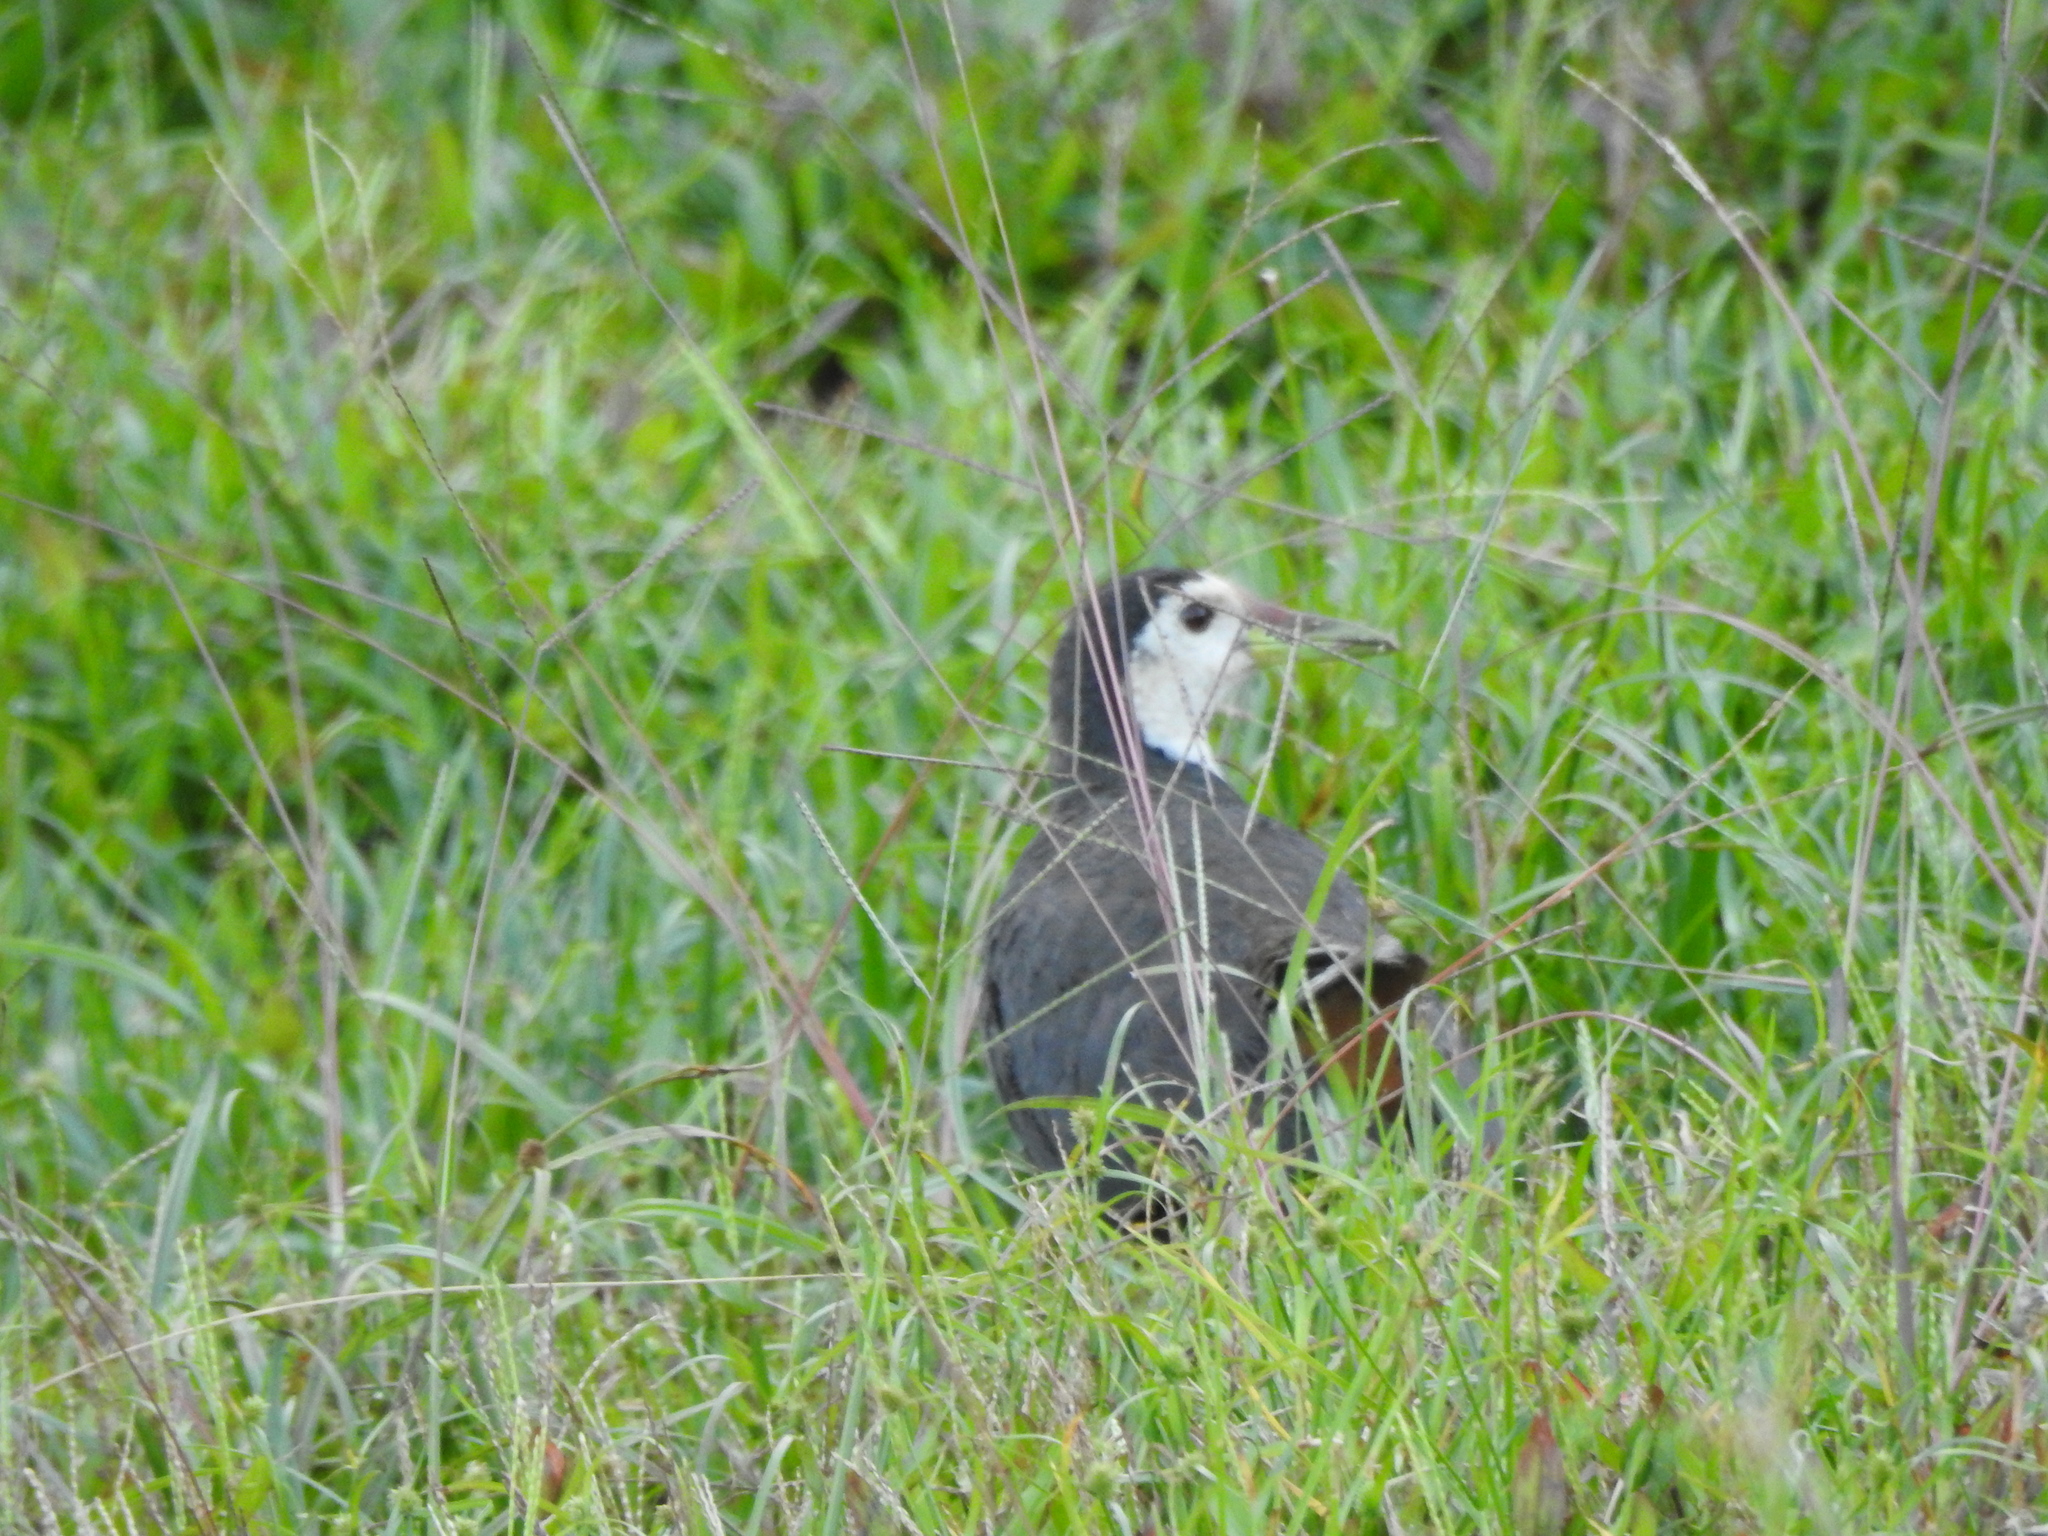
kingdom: Animalia
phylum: Chordata
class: Aves
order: Gruiformes
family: Rallidae
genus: Amaurornis
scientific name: Amaurornis phoenicurus
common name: White-breasted waterhen
